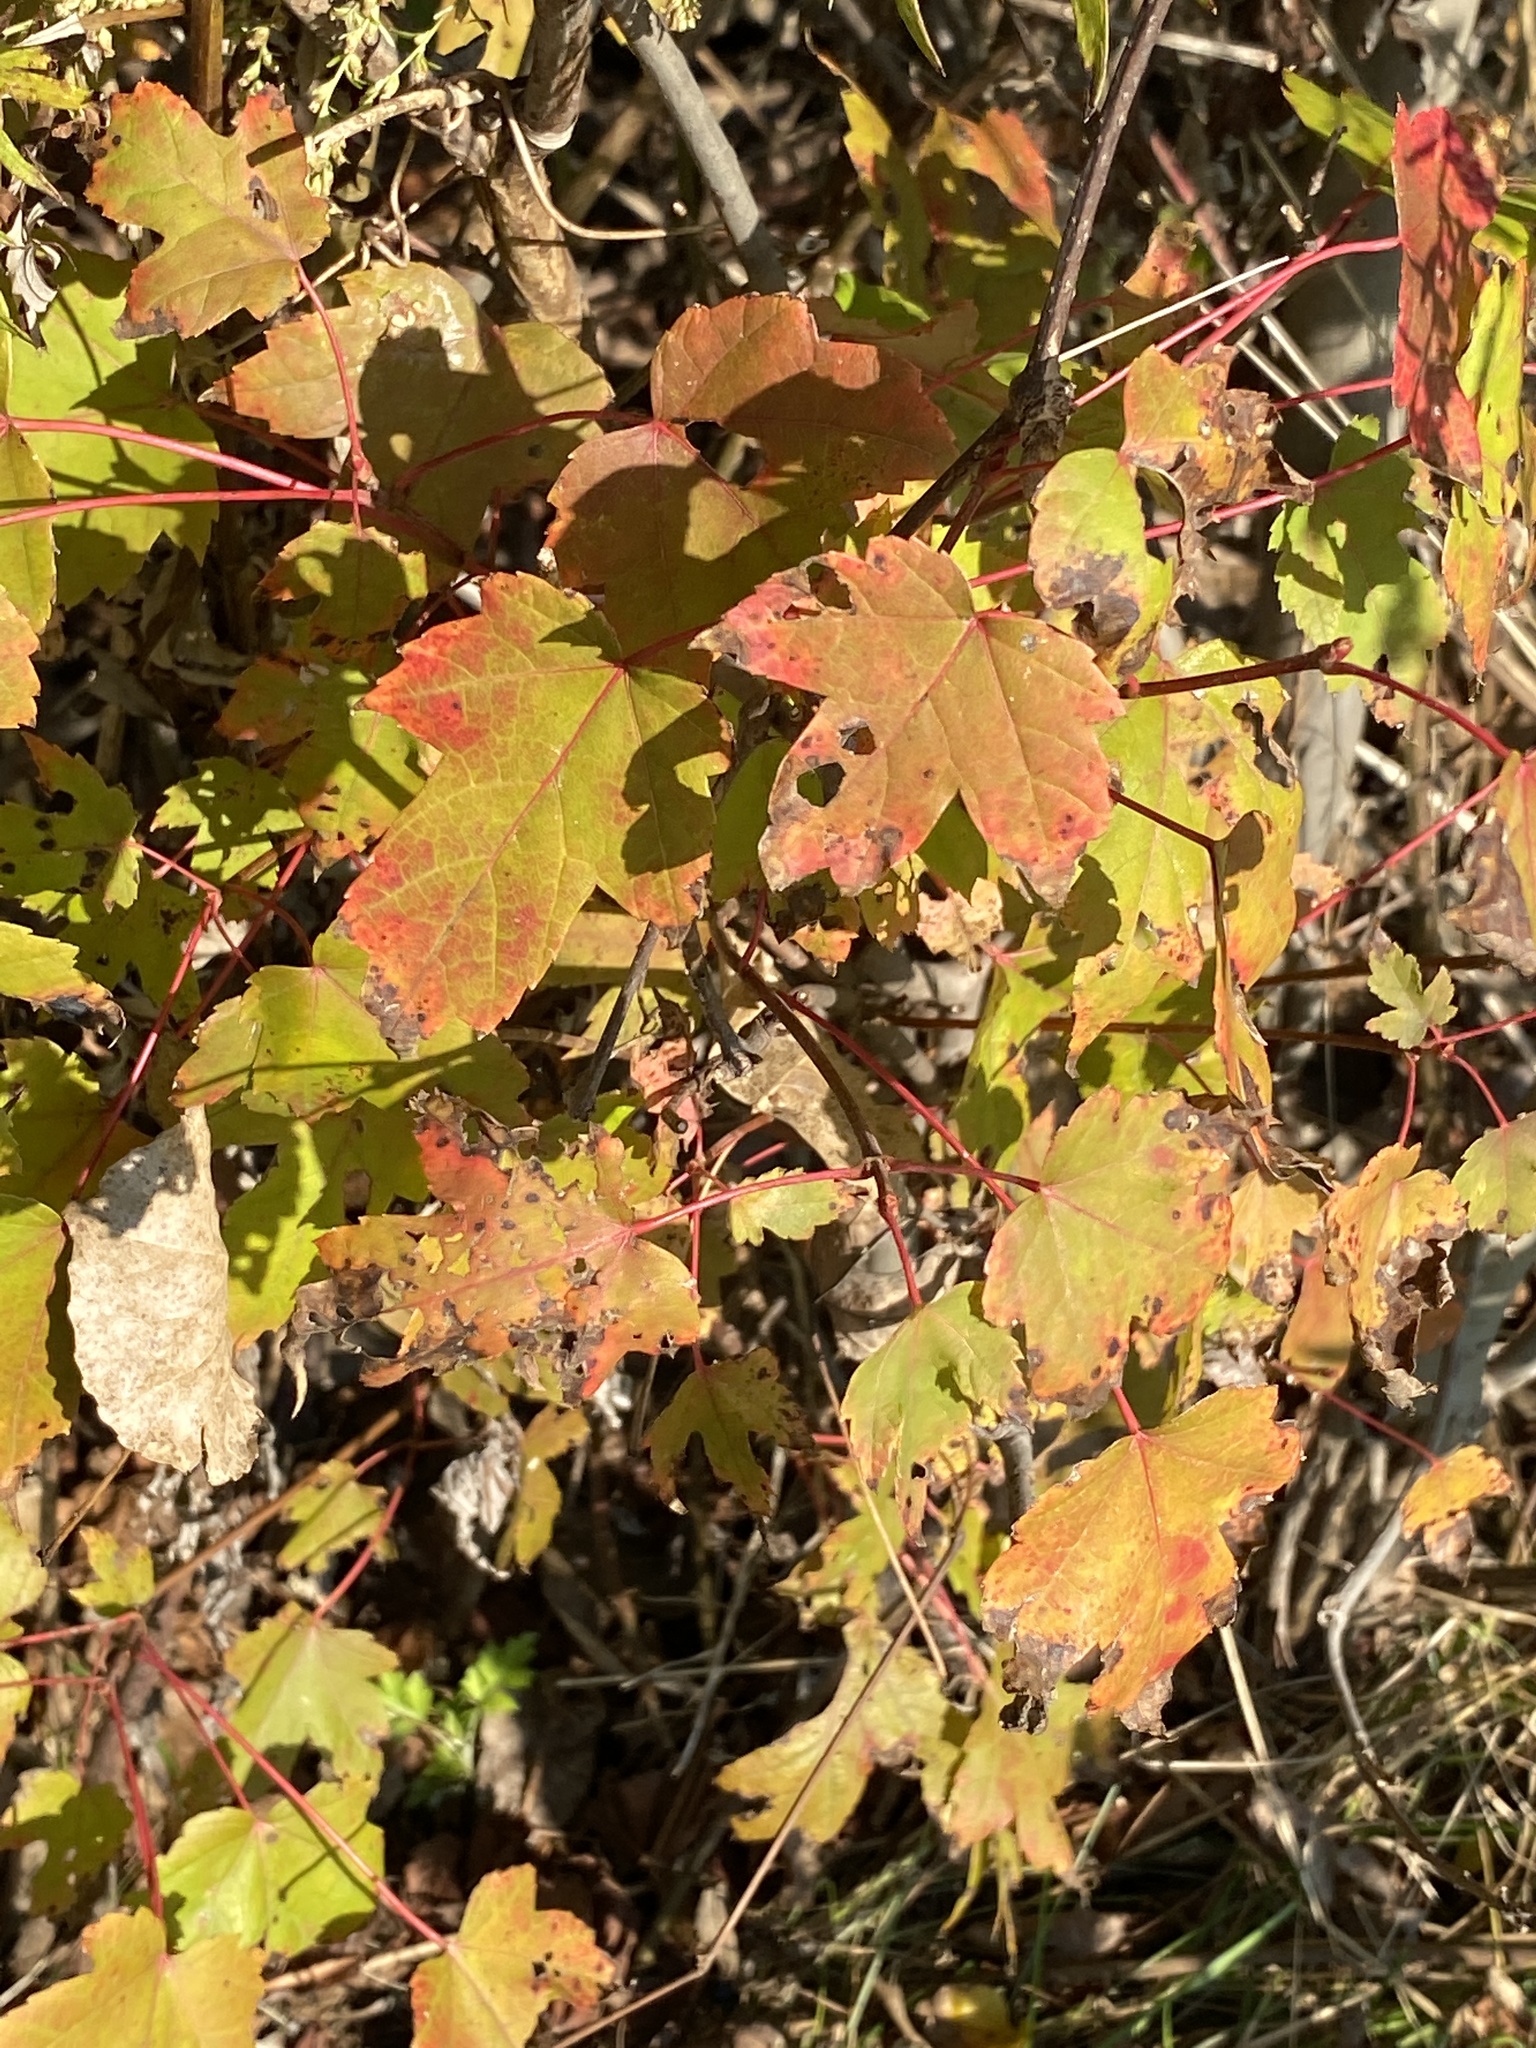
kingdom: Plantae
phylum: Tracheophyta
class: Magnoliopsida
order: Sapindales
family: Sapindaceae
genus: Acer
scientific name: Acer rubrum
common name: Red maple
